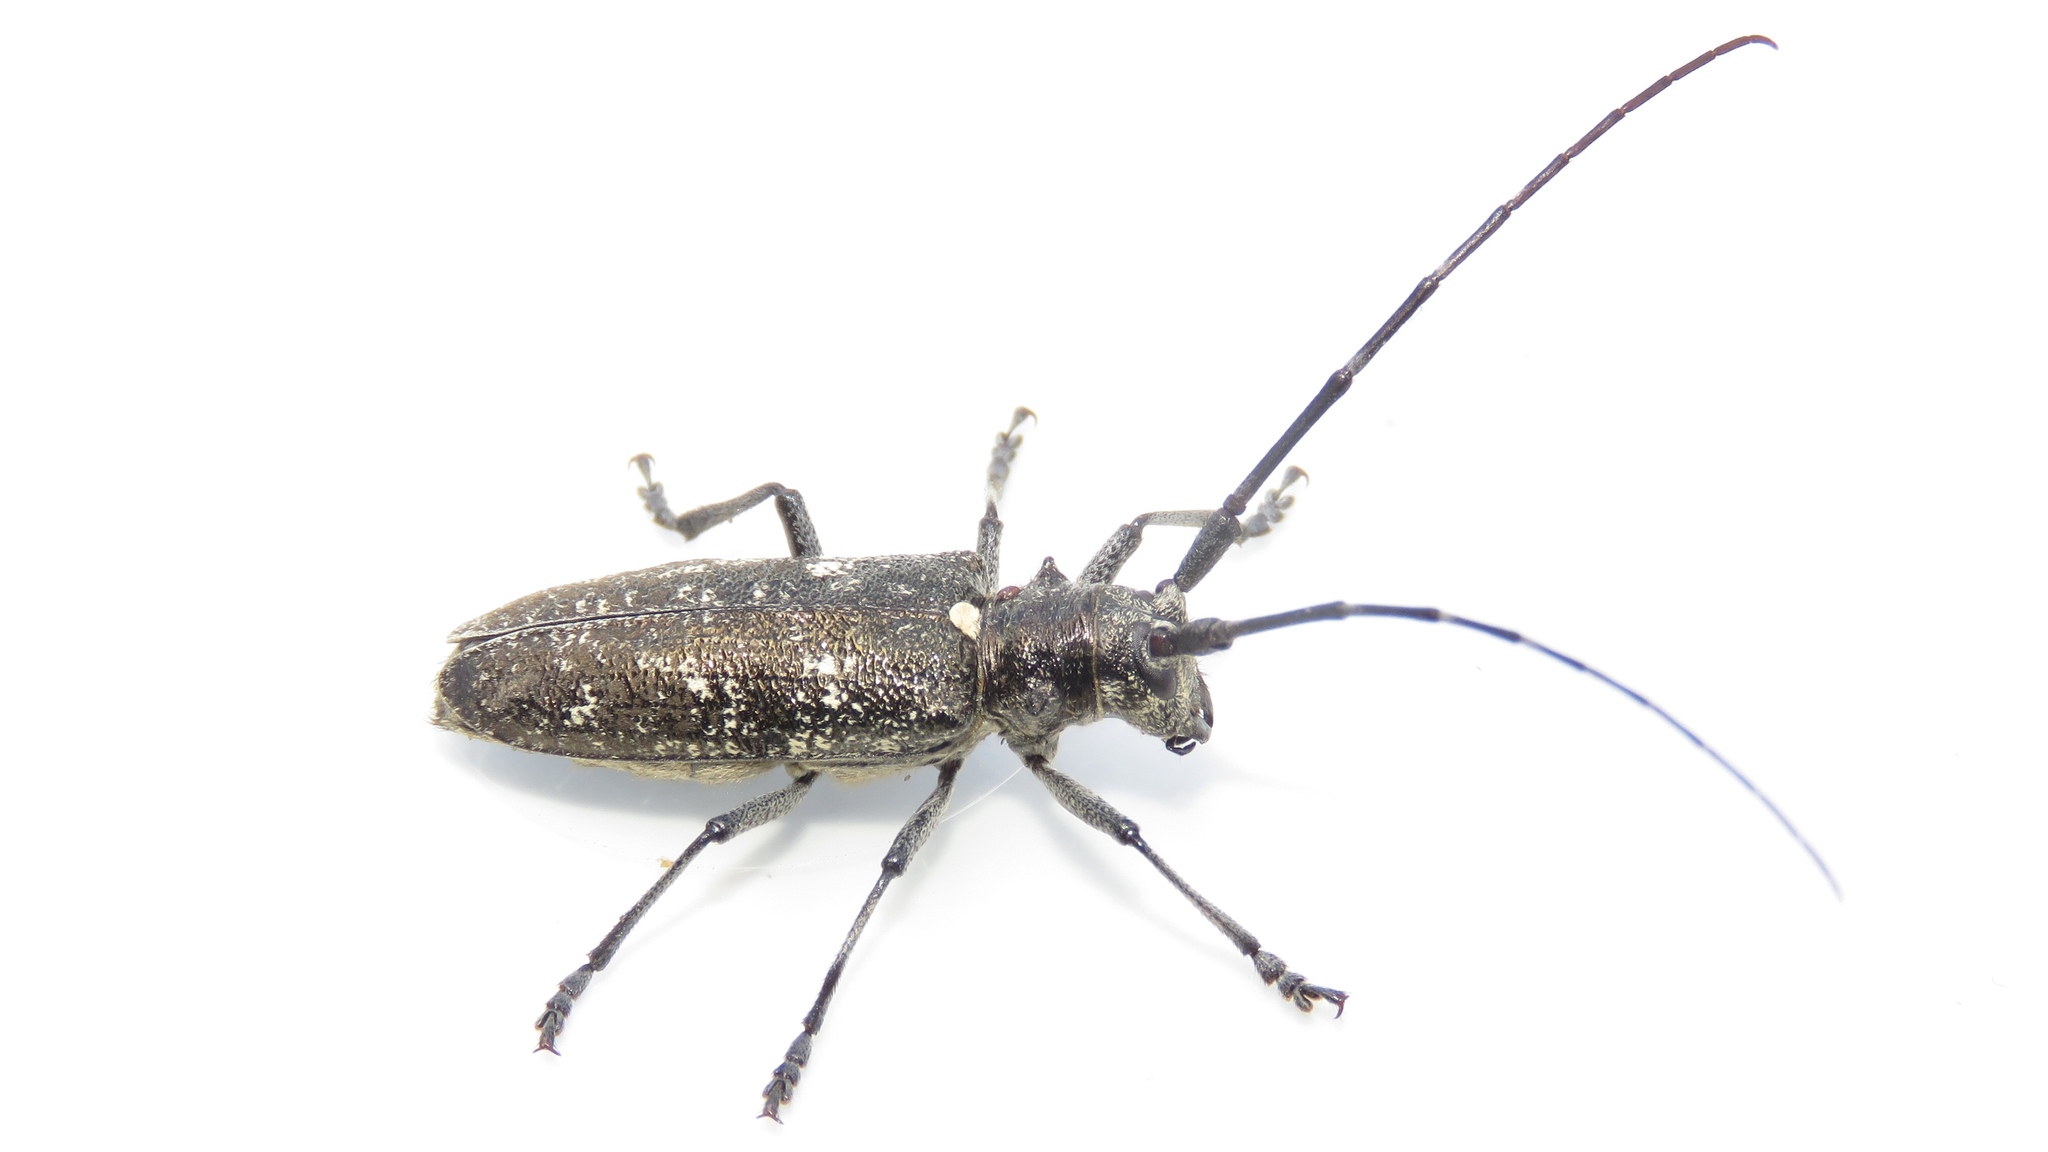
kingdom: Animalia
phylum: Arthropoda
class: Insecta
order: Coleoptera
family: Cerambycidae
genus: Monochamus
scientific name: Monochamus scutellatus
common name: White-spotted sawyer beetle
